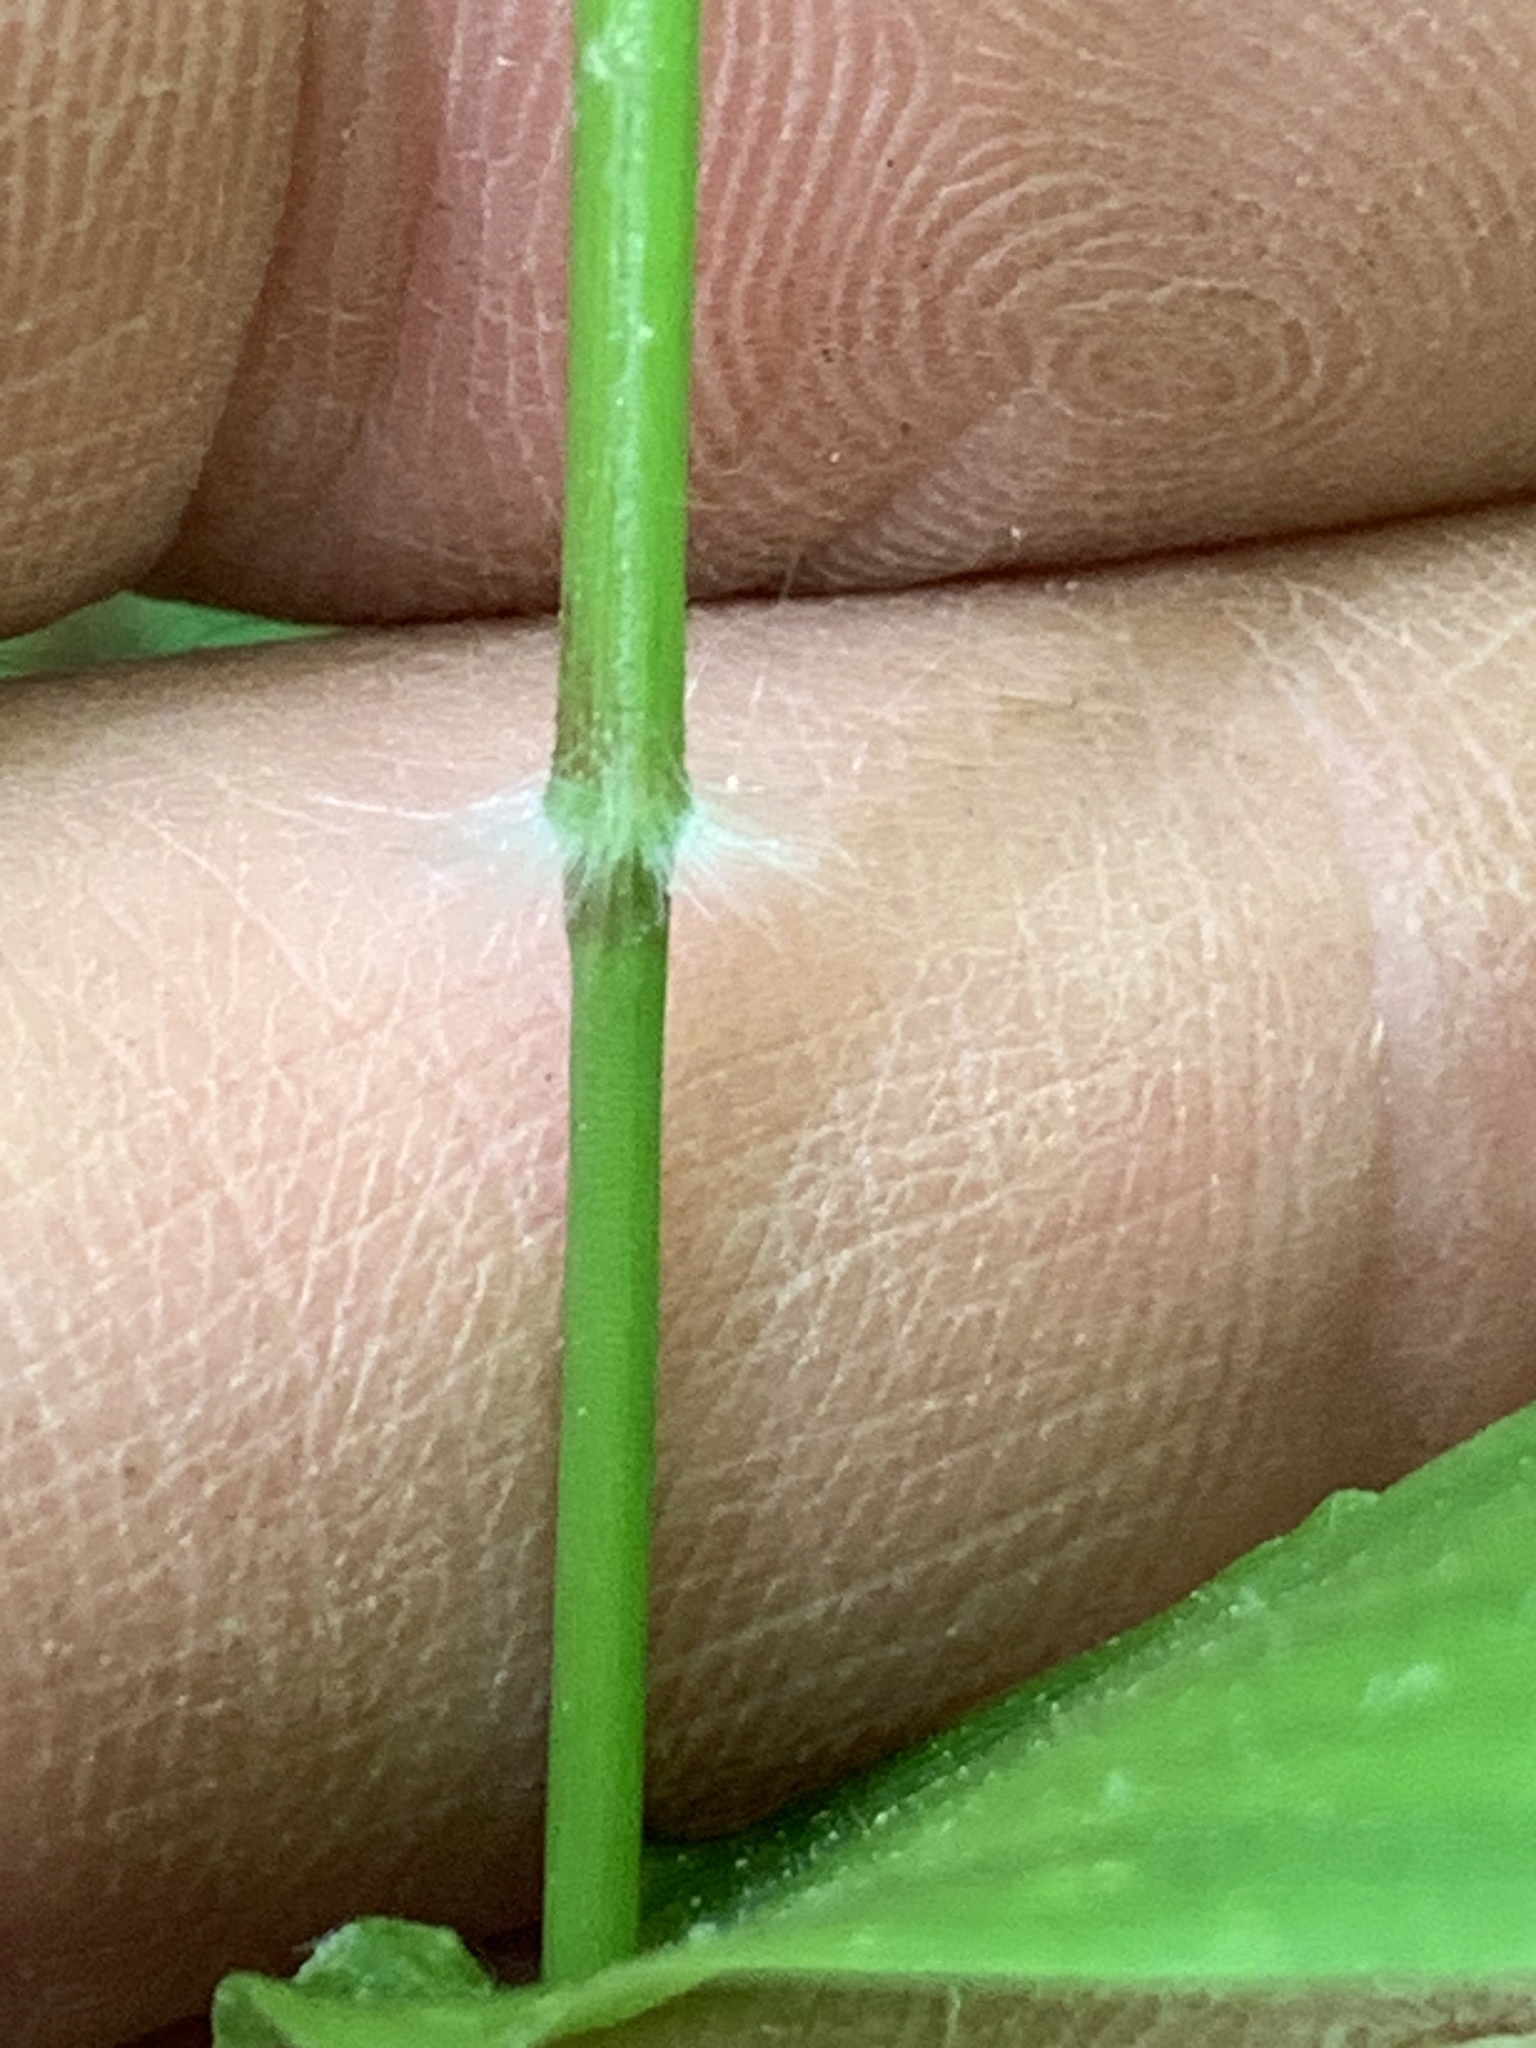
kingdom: Plantae
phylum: Tracheophyta
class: Liliopsida
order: Poales
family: Poaceae
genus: Dichanthelium
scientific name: Dichanthelium boscii
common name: Bosc's panic grass
